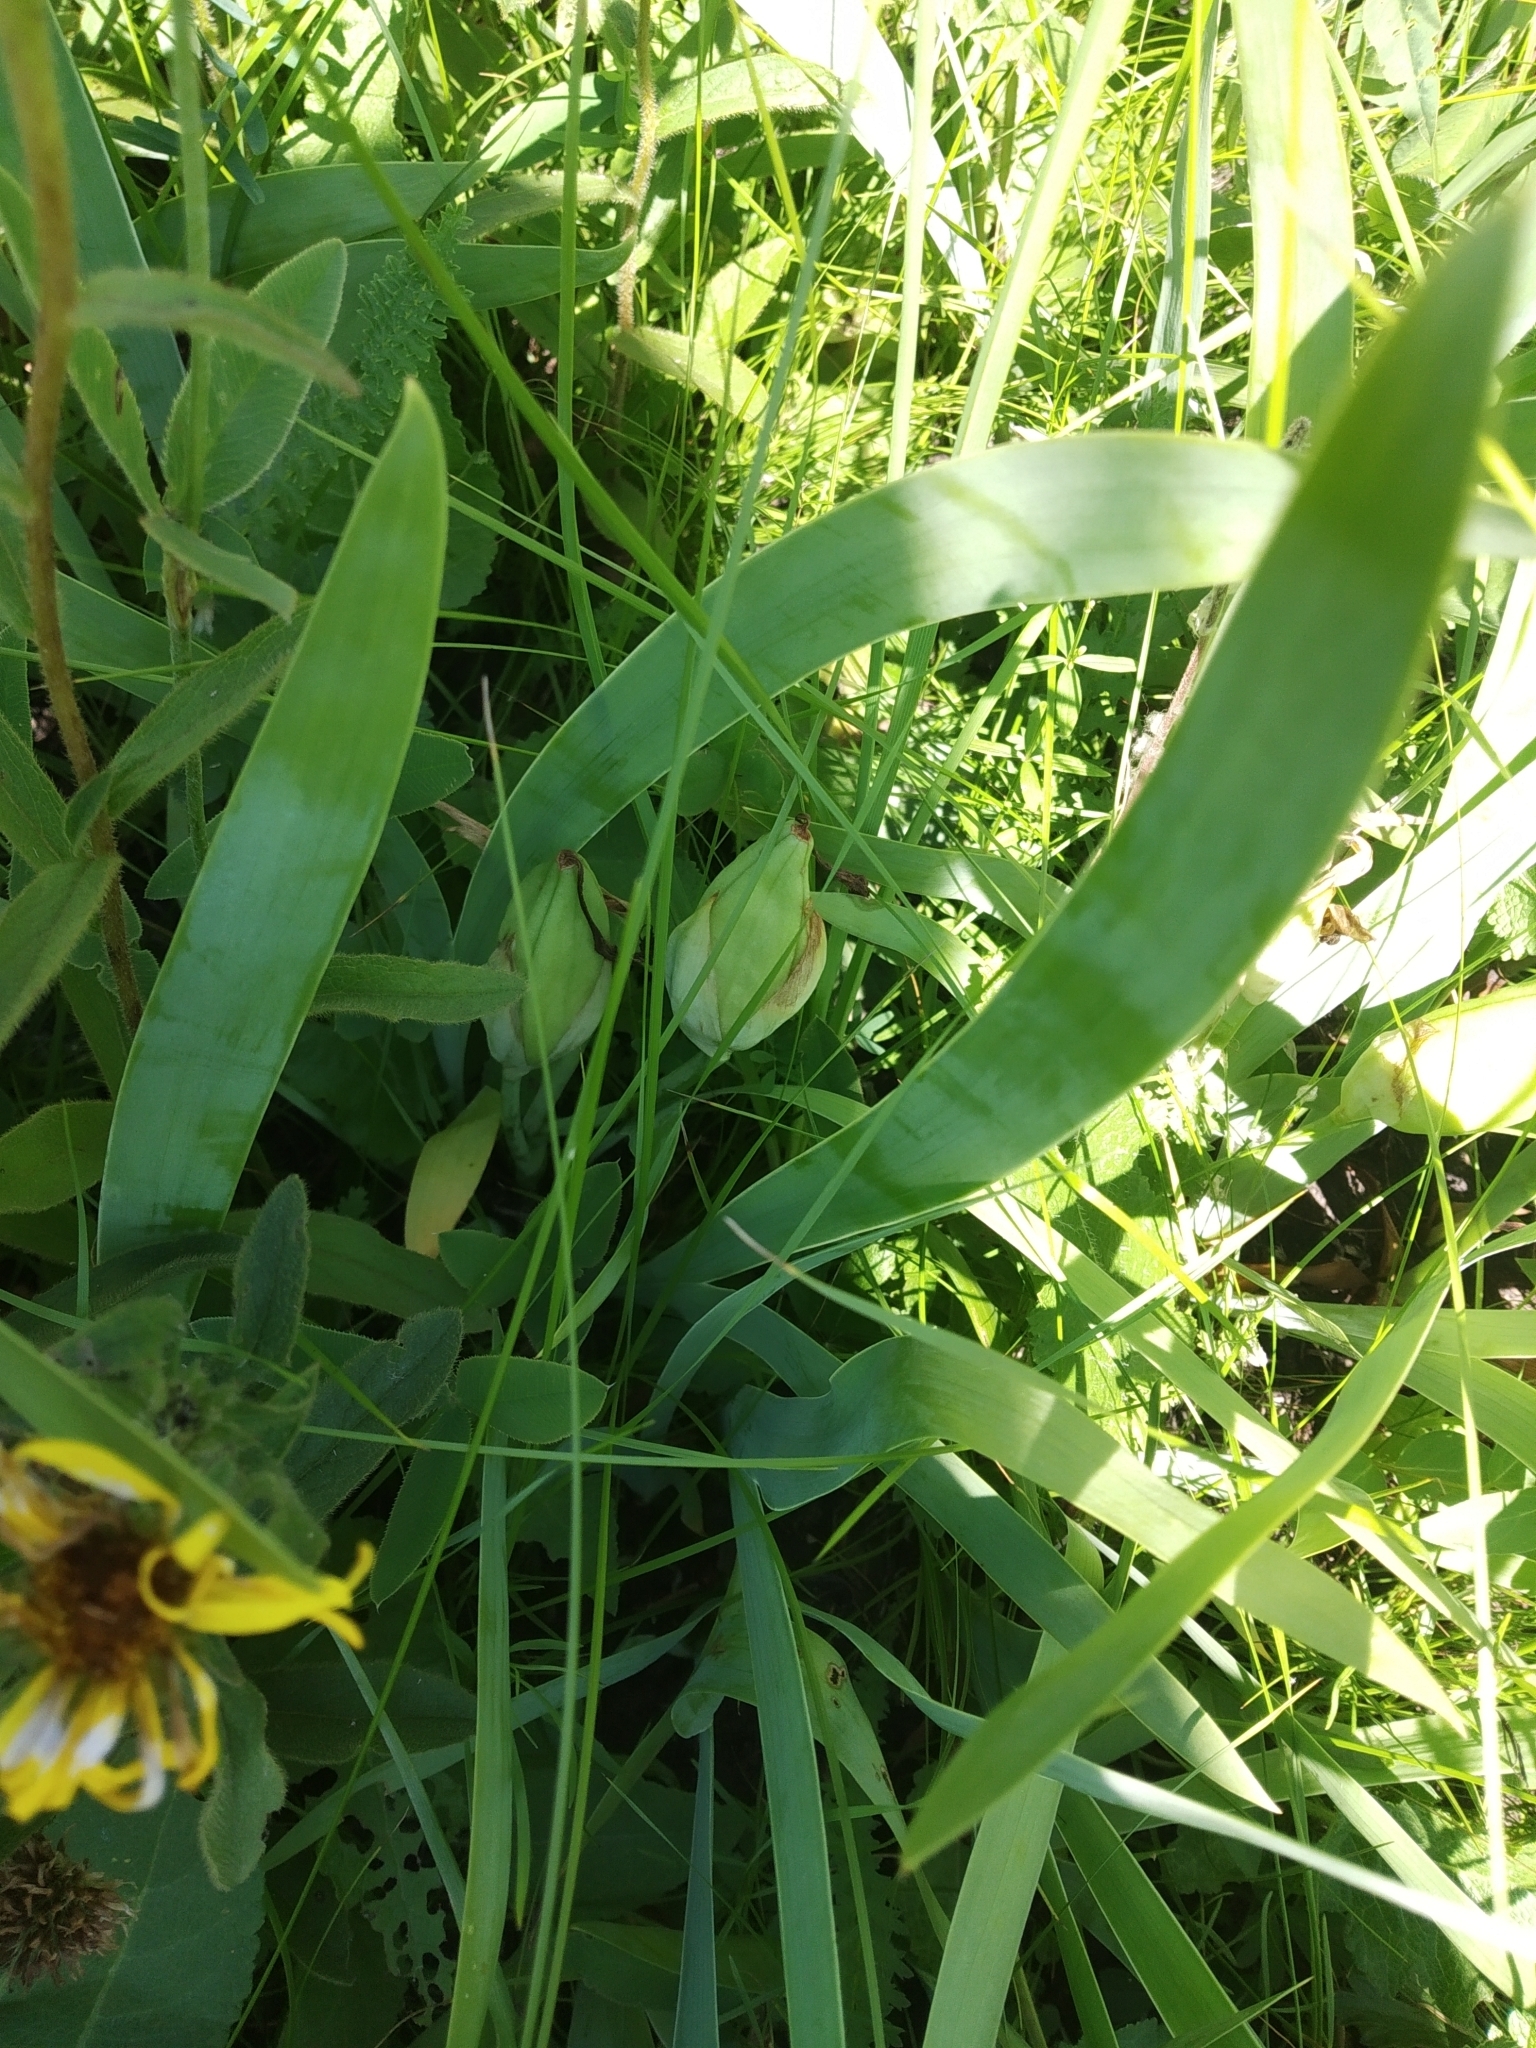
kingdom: Plantae
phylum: Tracheophyta
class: Liliopsida
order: Asparagales
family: Iridaceae
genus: Iris
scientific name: Iris aphylla
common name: Stool iris
